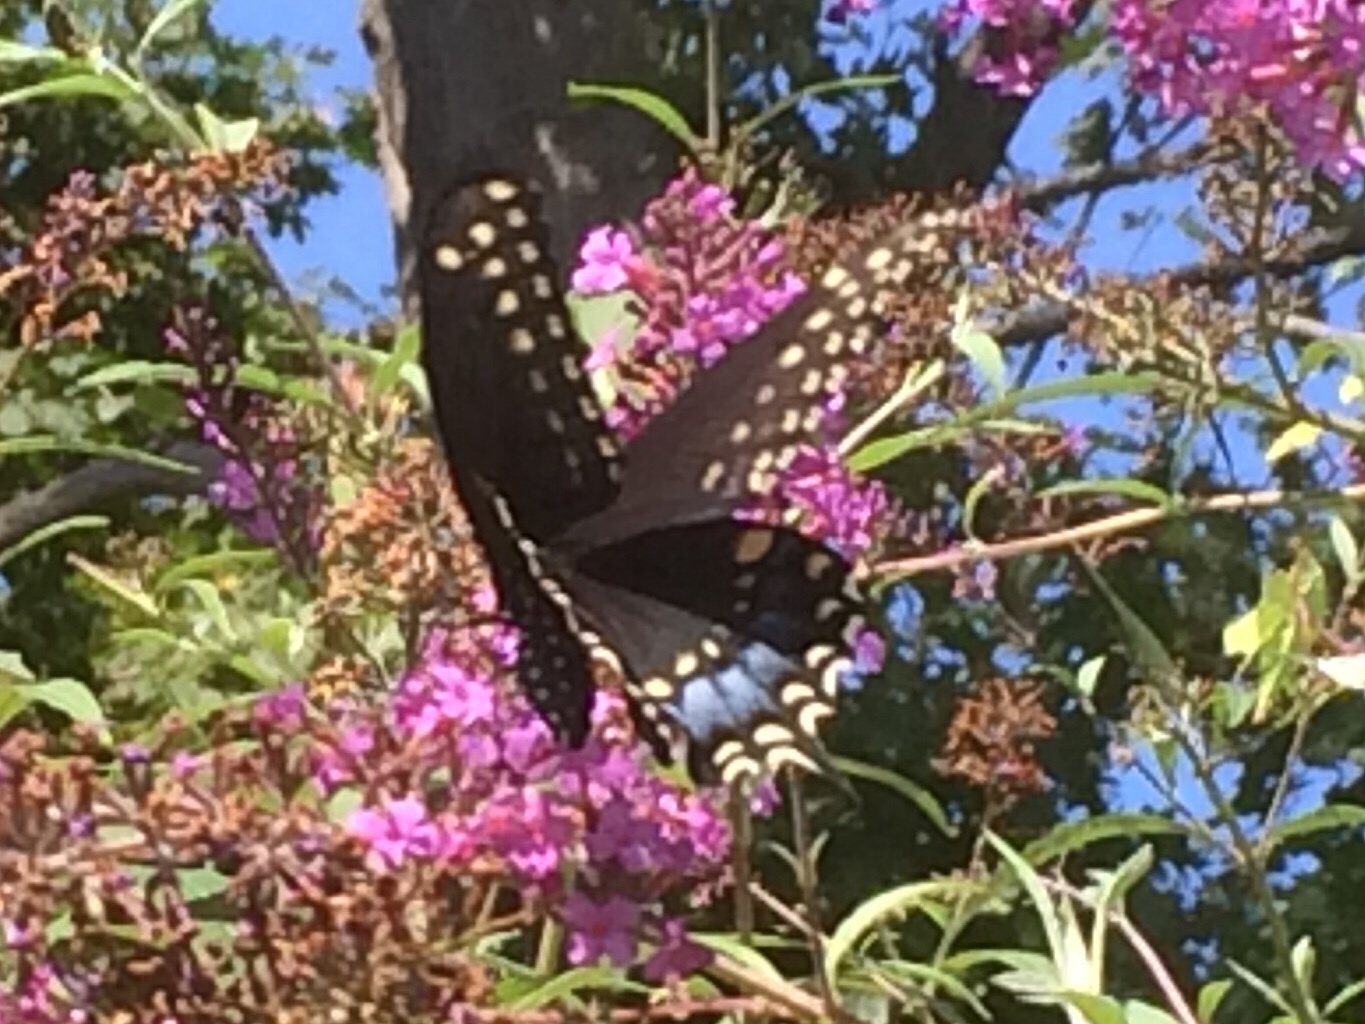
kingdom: Animalia
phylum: Arthropoda
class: Insecta
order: Lepidoptera
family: Papilionidae
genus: Papilio
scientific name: Papilio polyxenes
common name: Black swallowtail
